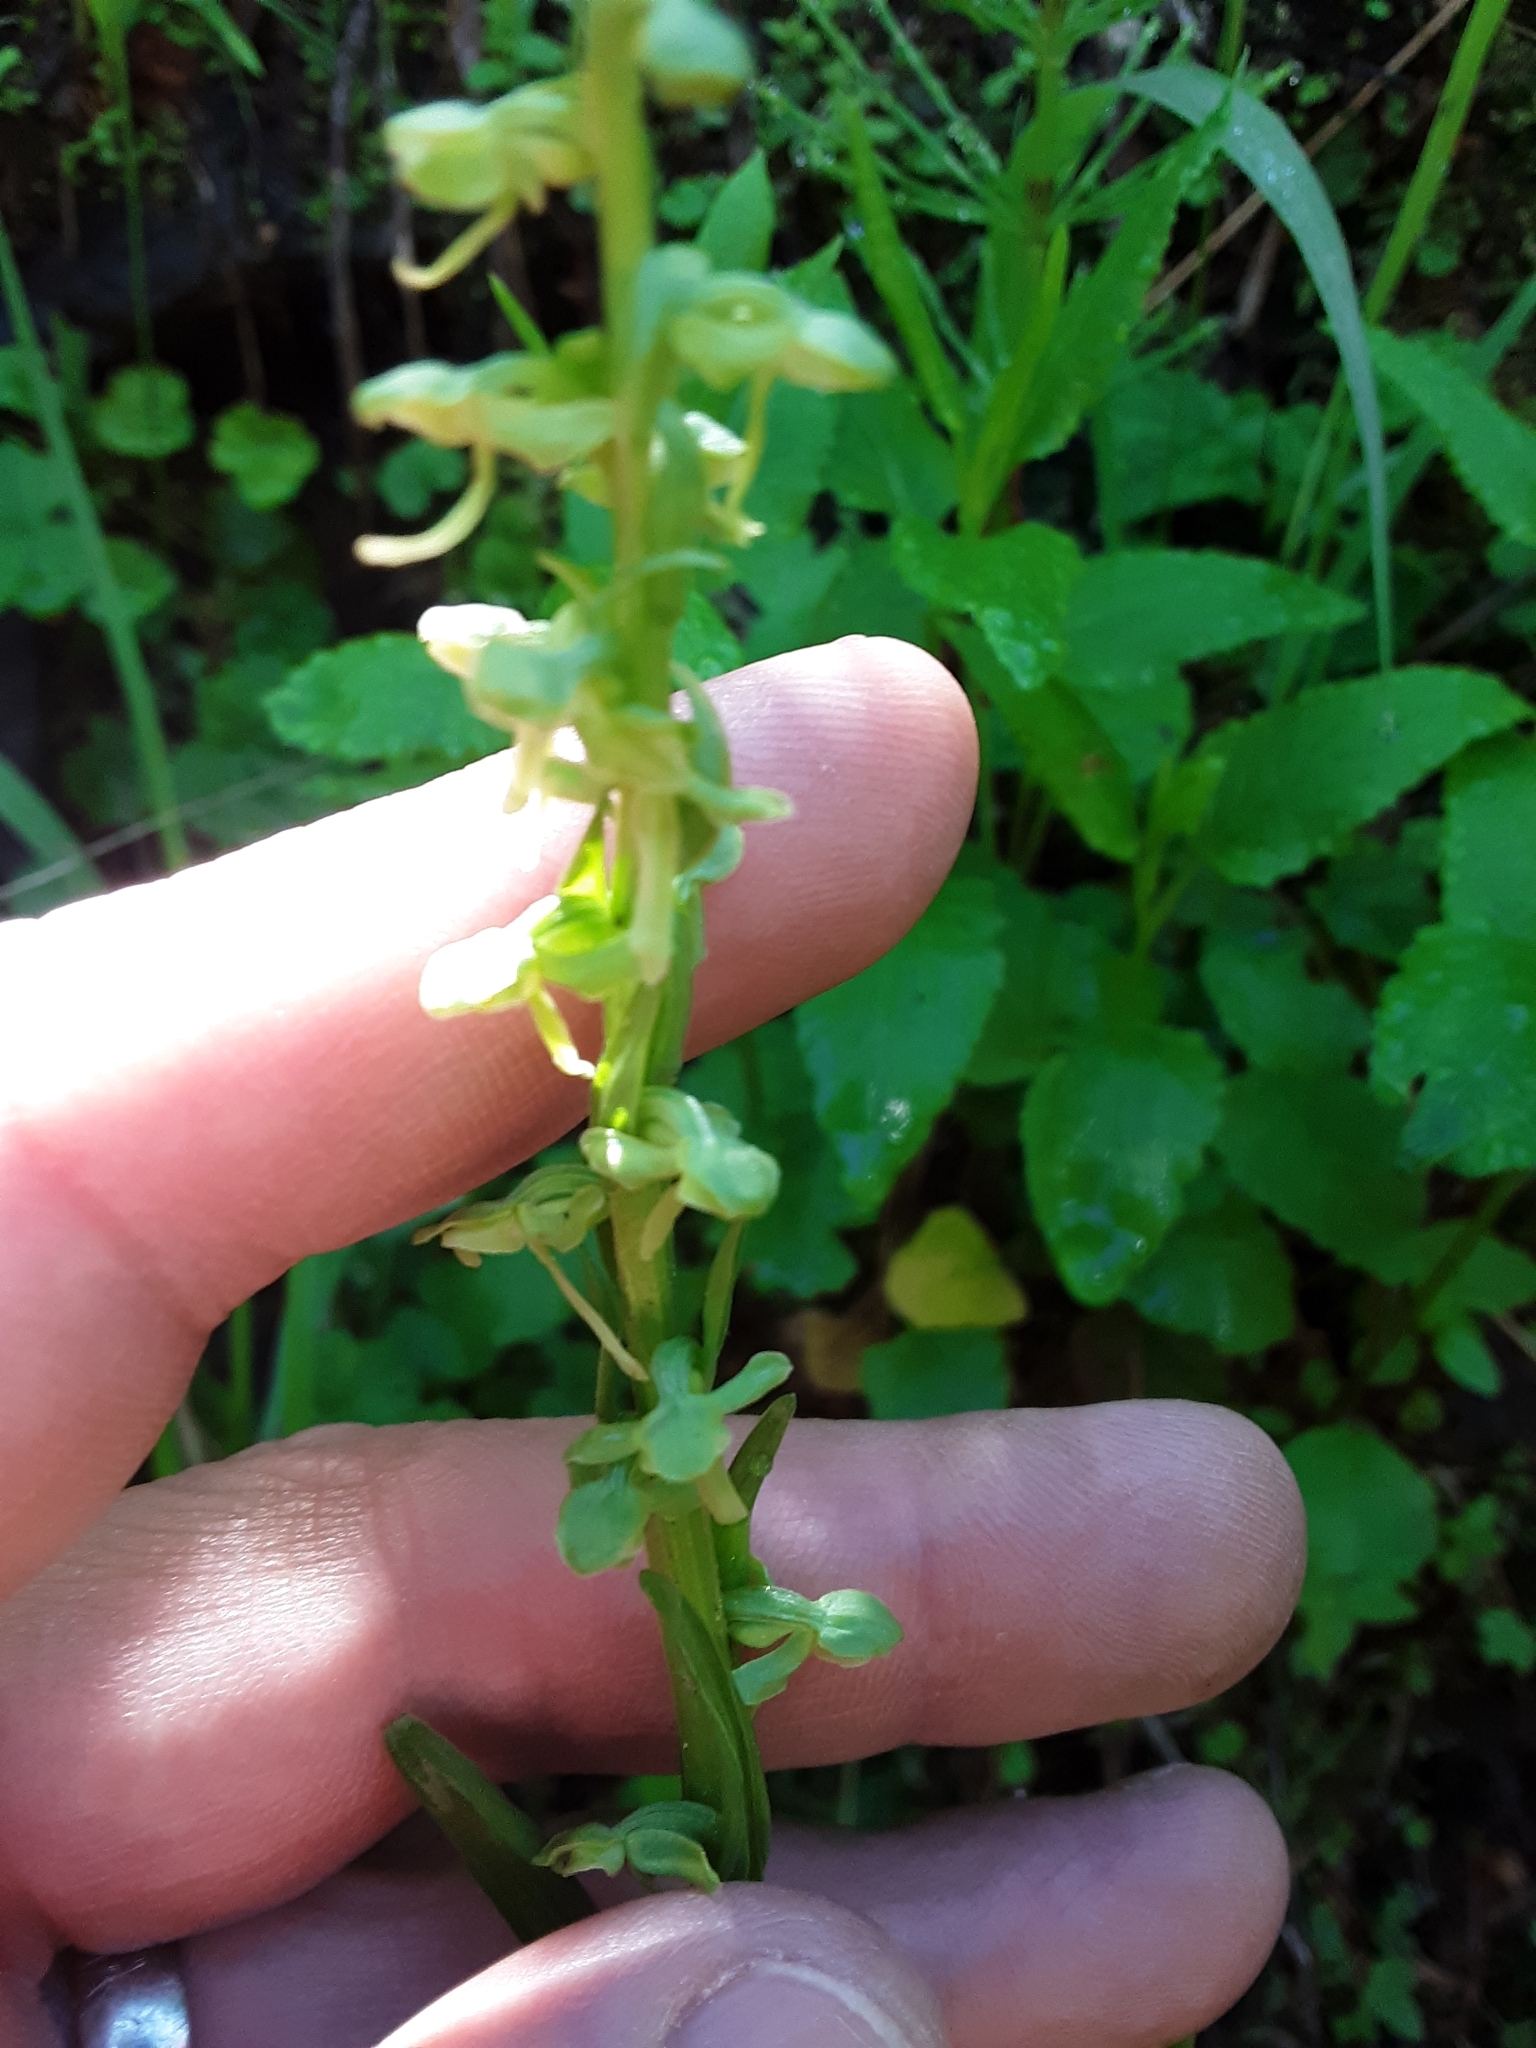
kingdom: Plantae
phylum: Tracheophyta
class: Liliopsida
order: Asparagales
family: Orchidaceae
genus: Platanthera
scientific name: Platanthera stricta
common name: Slender bog orchid
